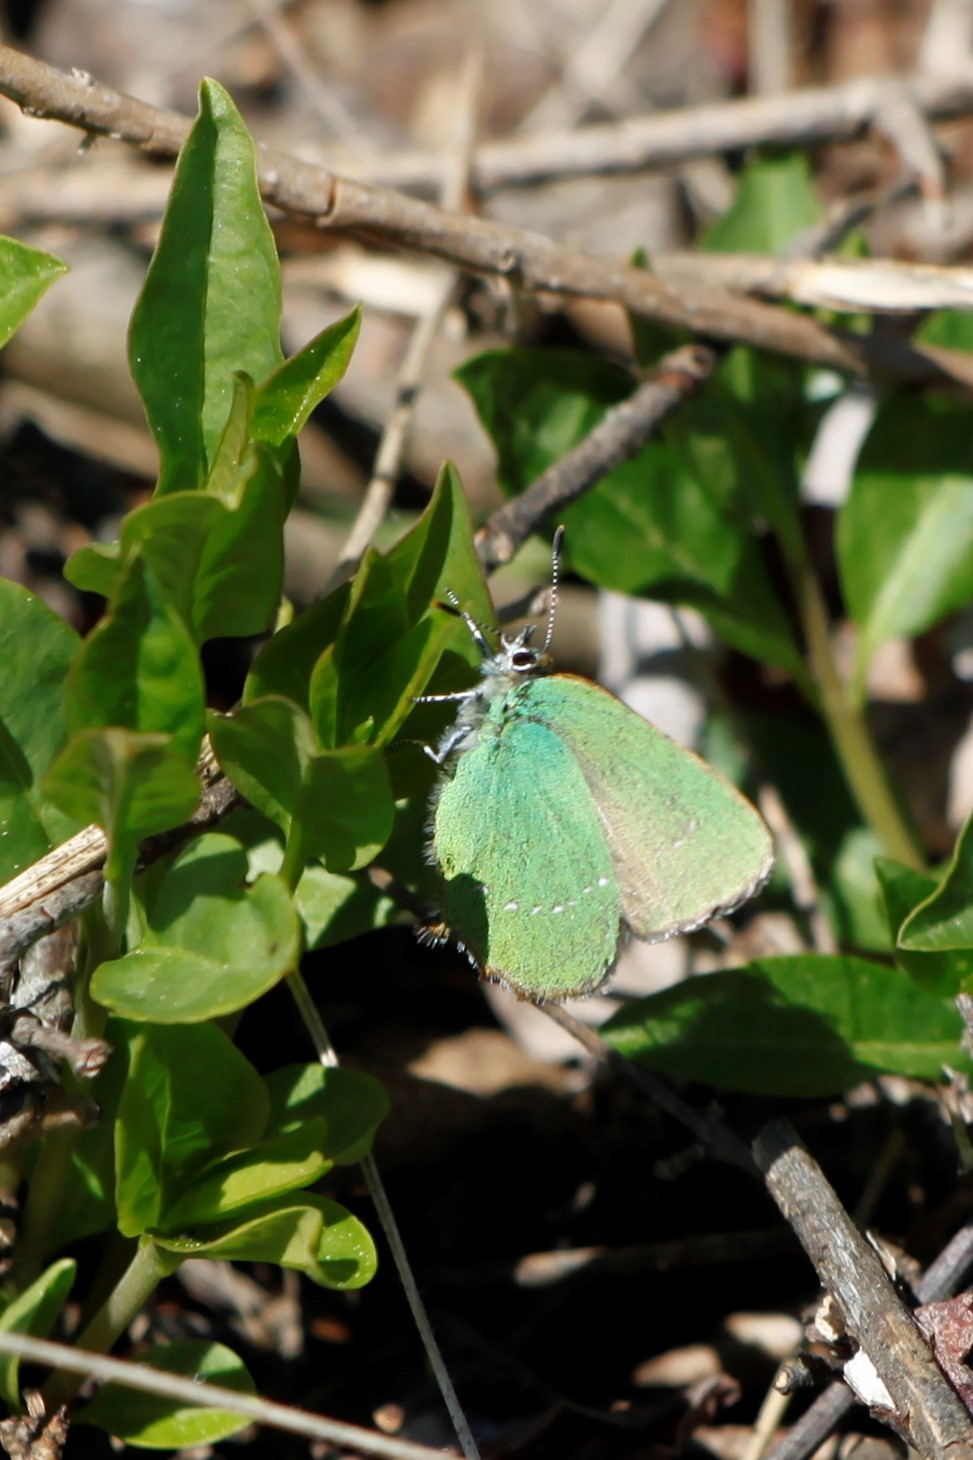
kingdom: Animalia
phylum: Arthropoda
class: Insecta
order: Lepidoptera
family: Lycaenidae
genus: Callophrys
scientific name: Callophrys rubi
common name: Green hairstreak
